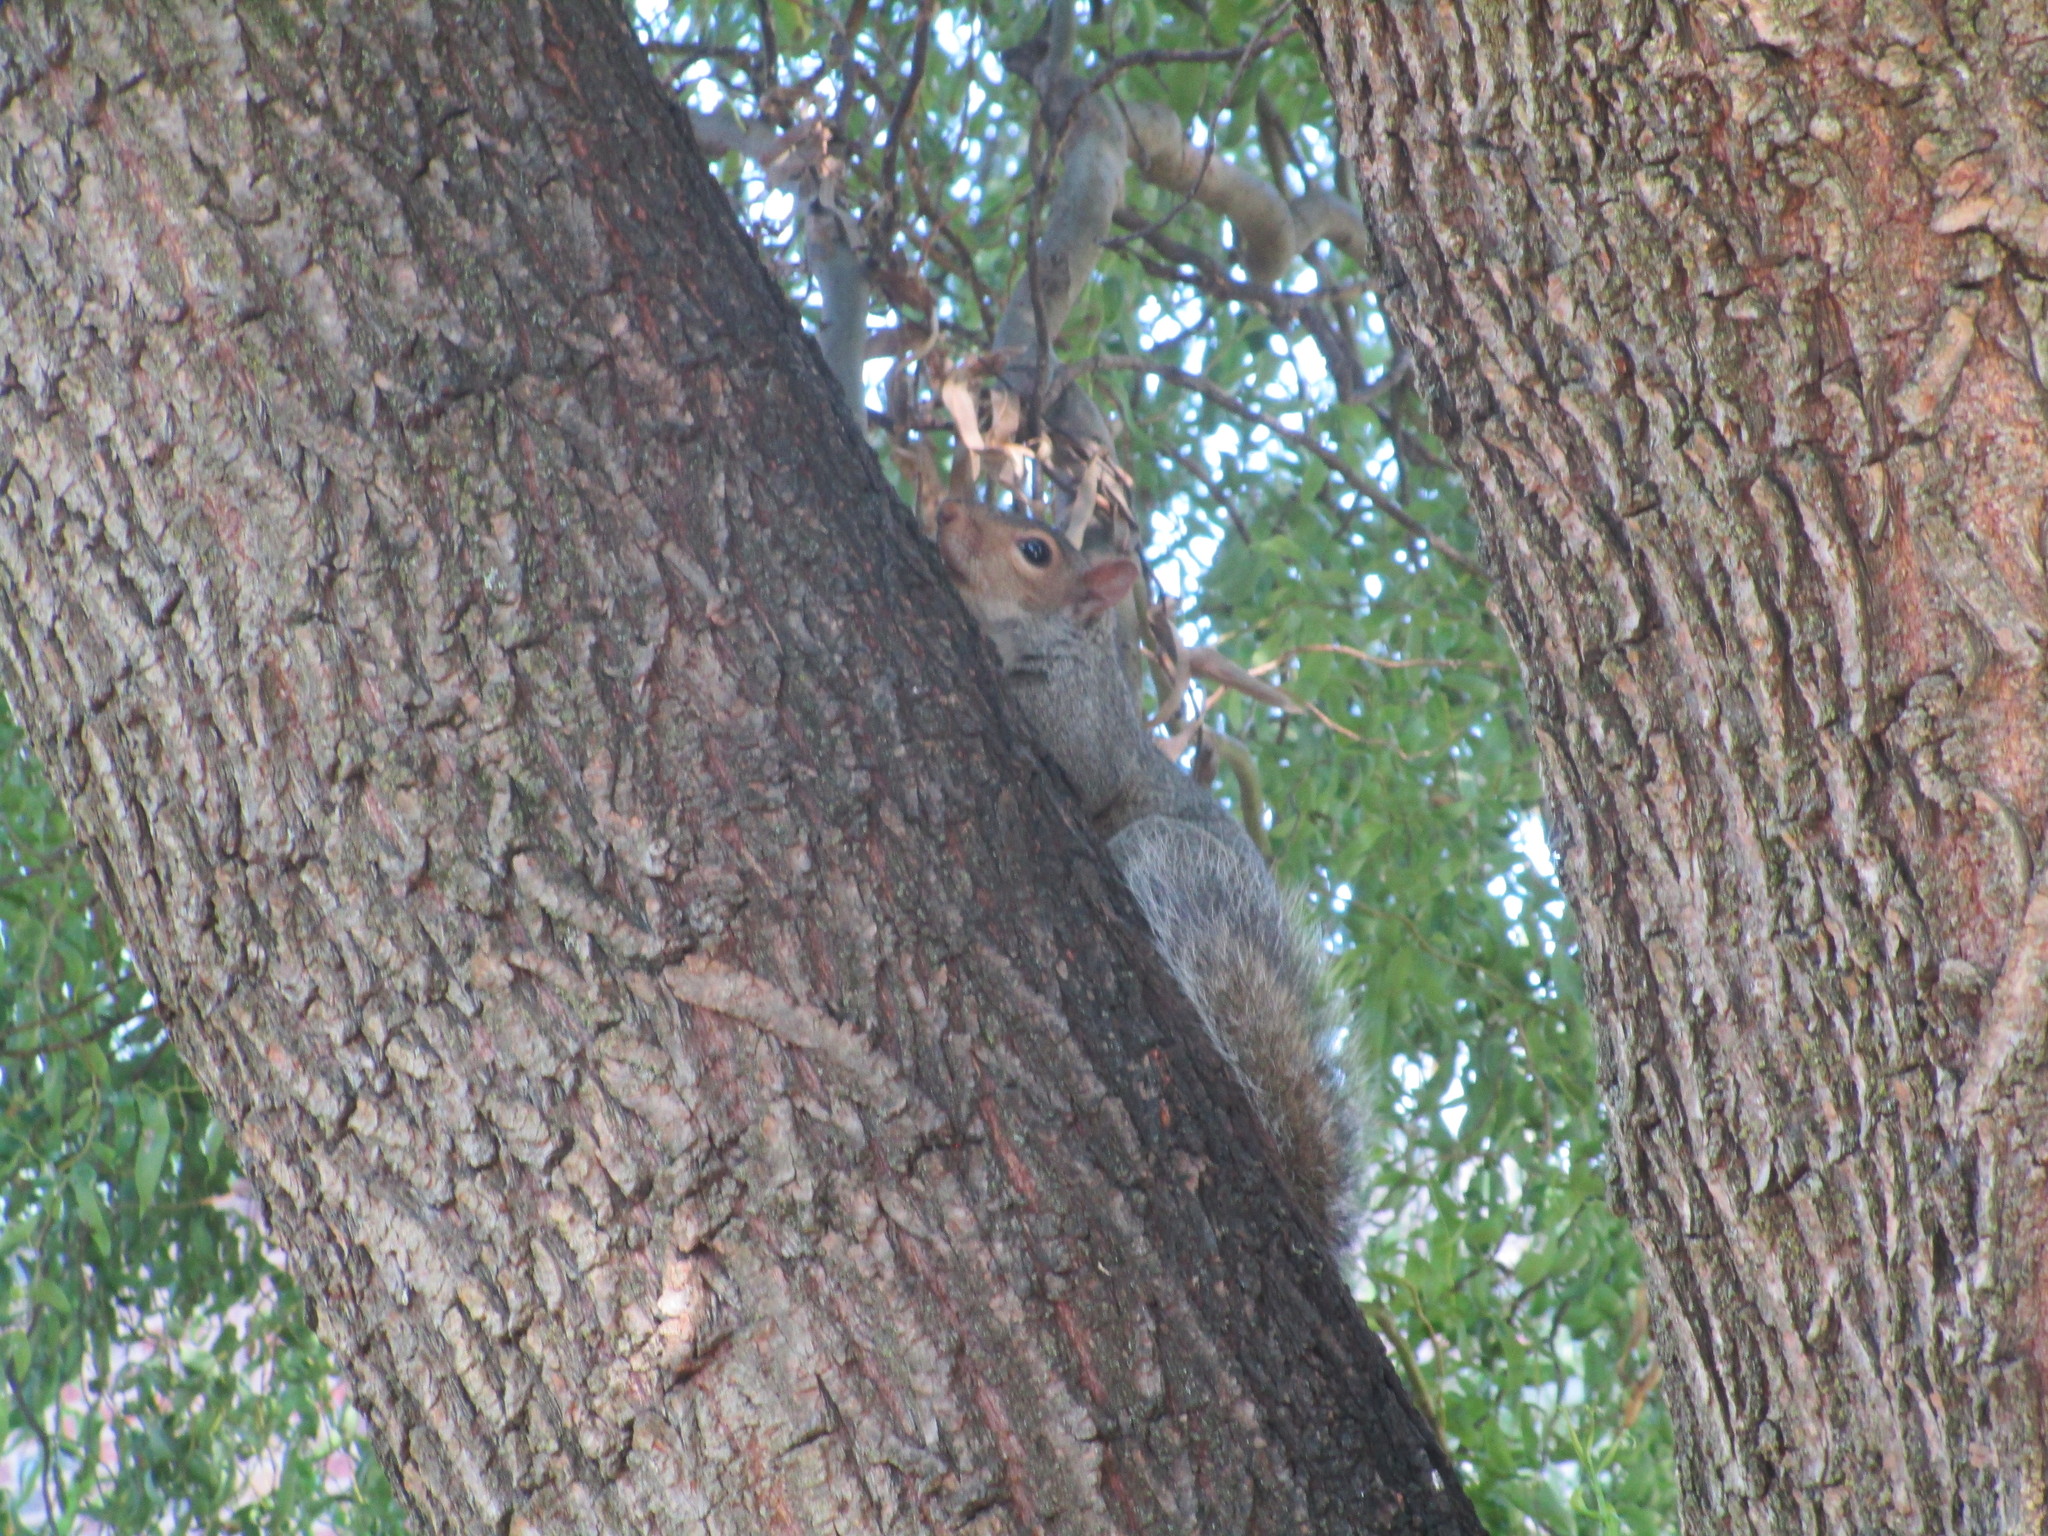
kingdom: Animalia
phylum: Chordata
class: Mammalia
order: Rodentia
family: Sciuridae
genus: Sciurus
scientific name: Sciurus carolinensis
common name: Eastern gray squirrel
